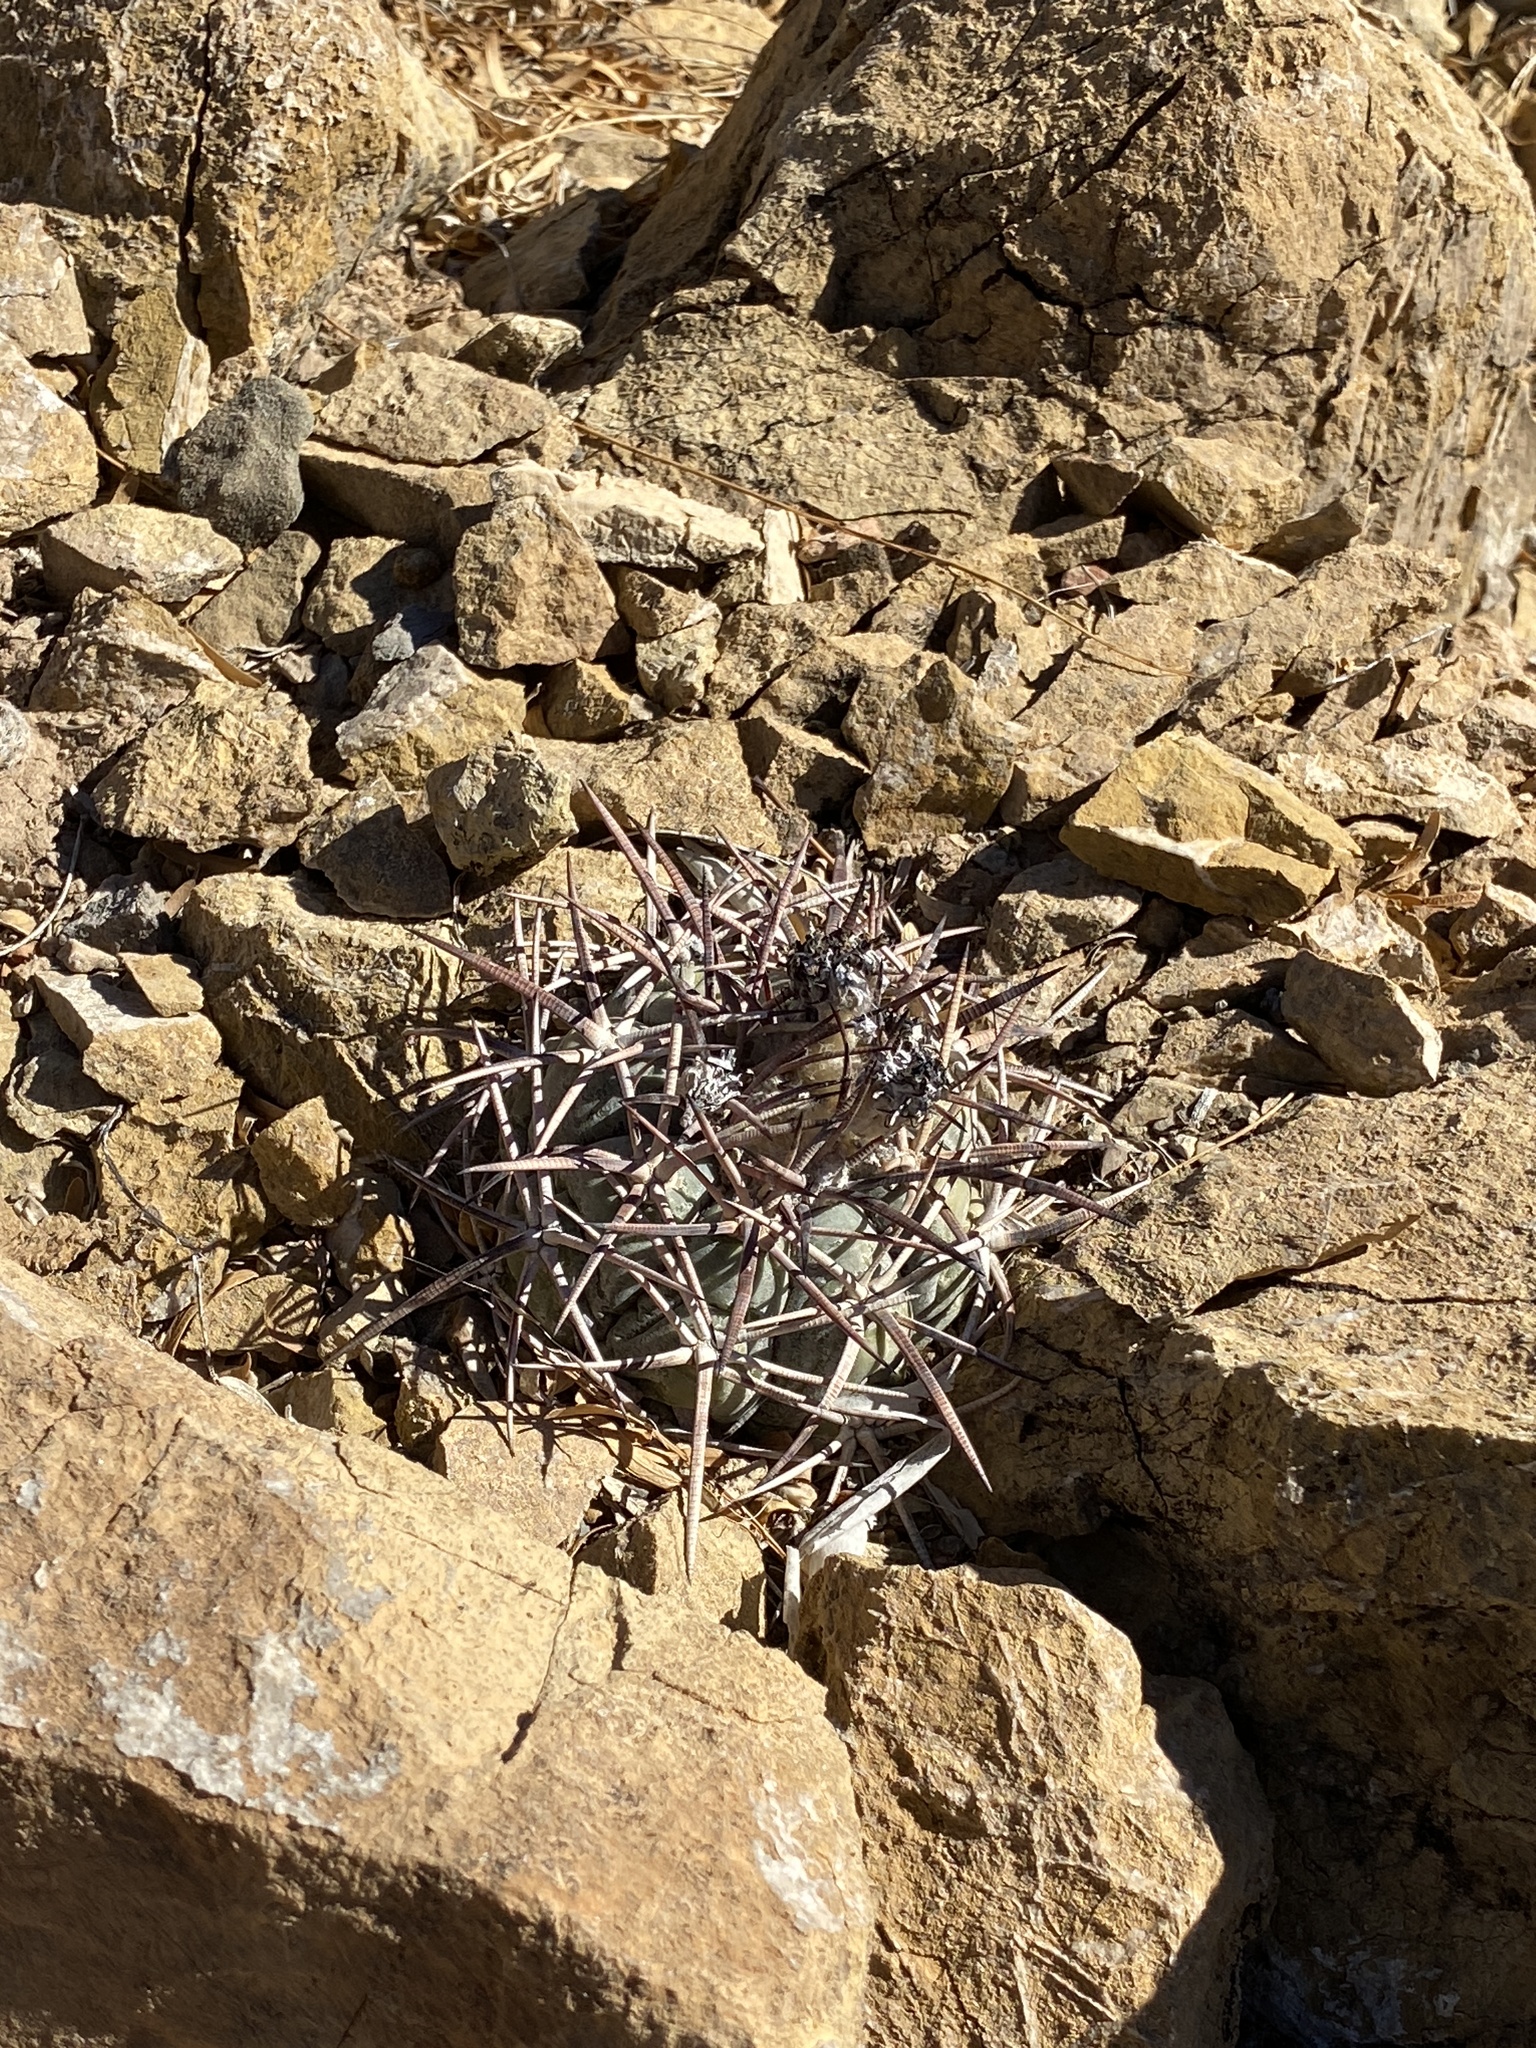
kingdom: Plantae
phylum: Tracheophyta
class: Magnoliopsida
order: Caryophyllales
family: Cactaceae
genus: Echinocactus
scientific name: Echinocactus horizonthalonius
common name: Devilshead
